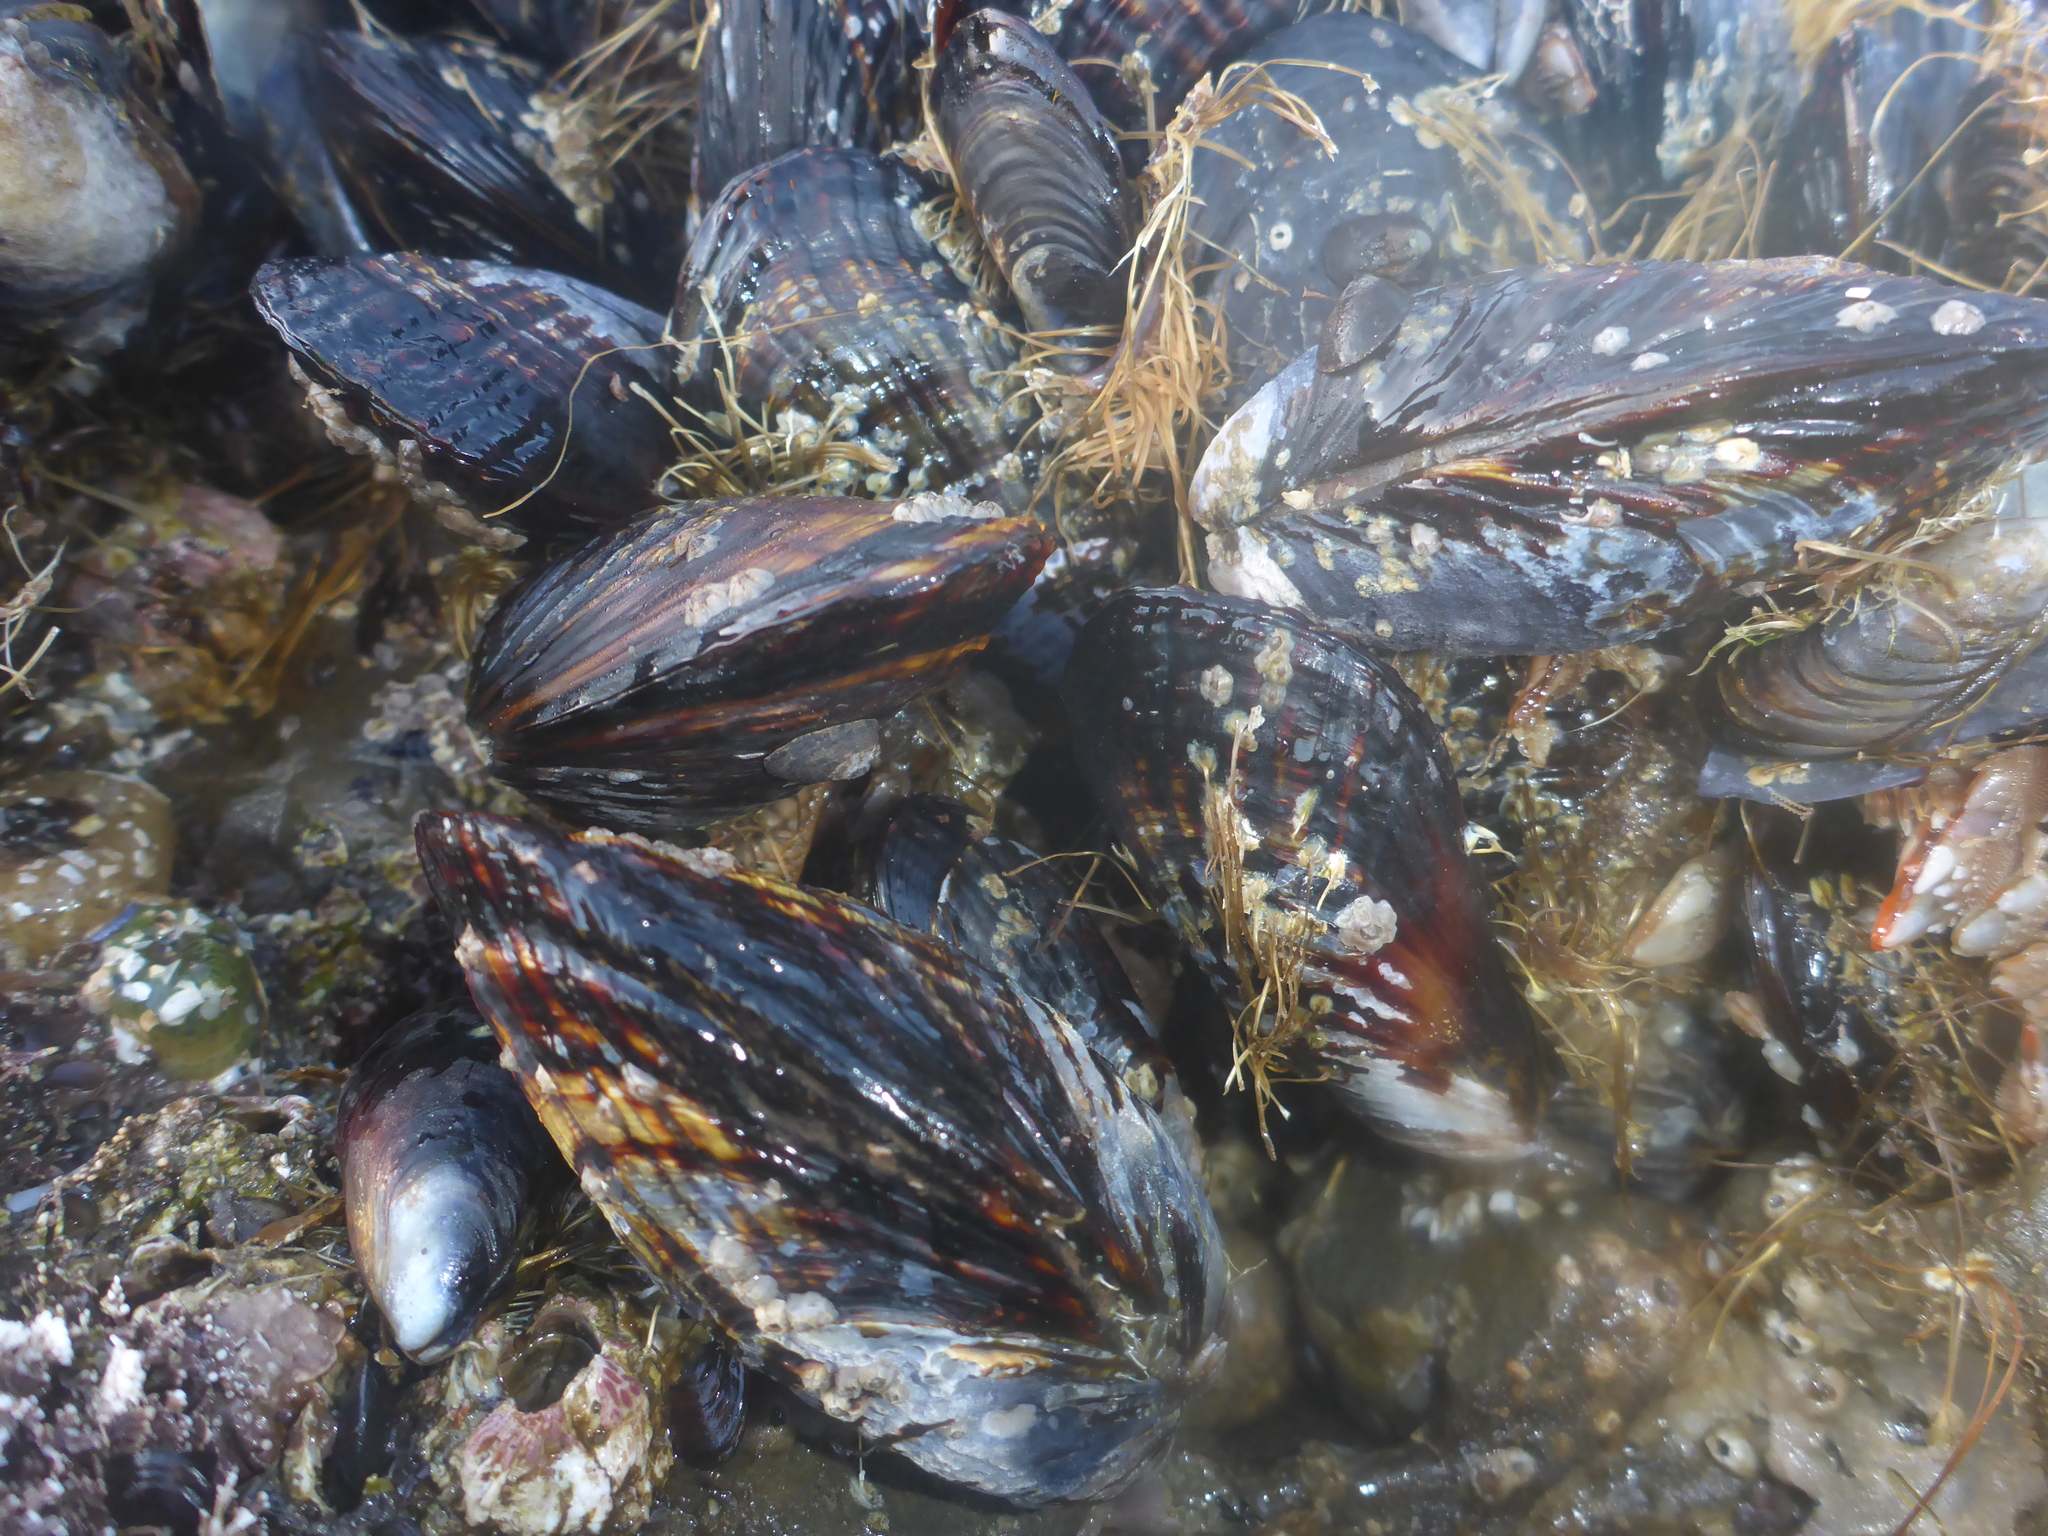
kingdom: Animalia
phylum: Mollusca
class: Bivalvia
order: Mytilida
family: Mytilidae
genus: Mytilus
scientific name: Mytilus californianus
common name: California mussel
